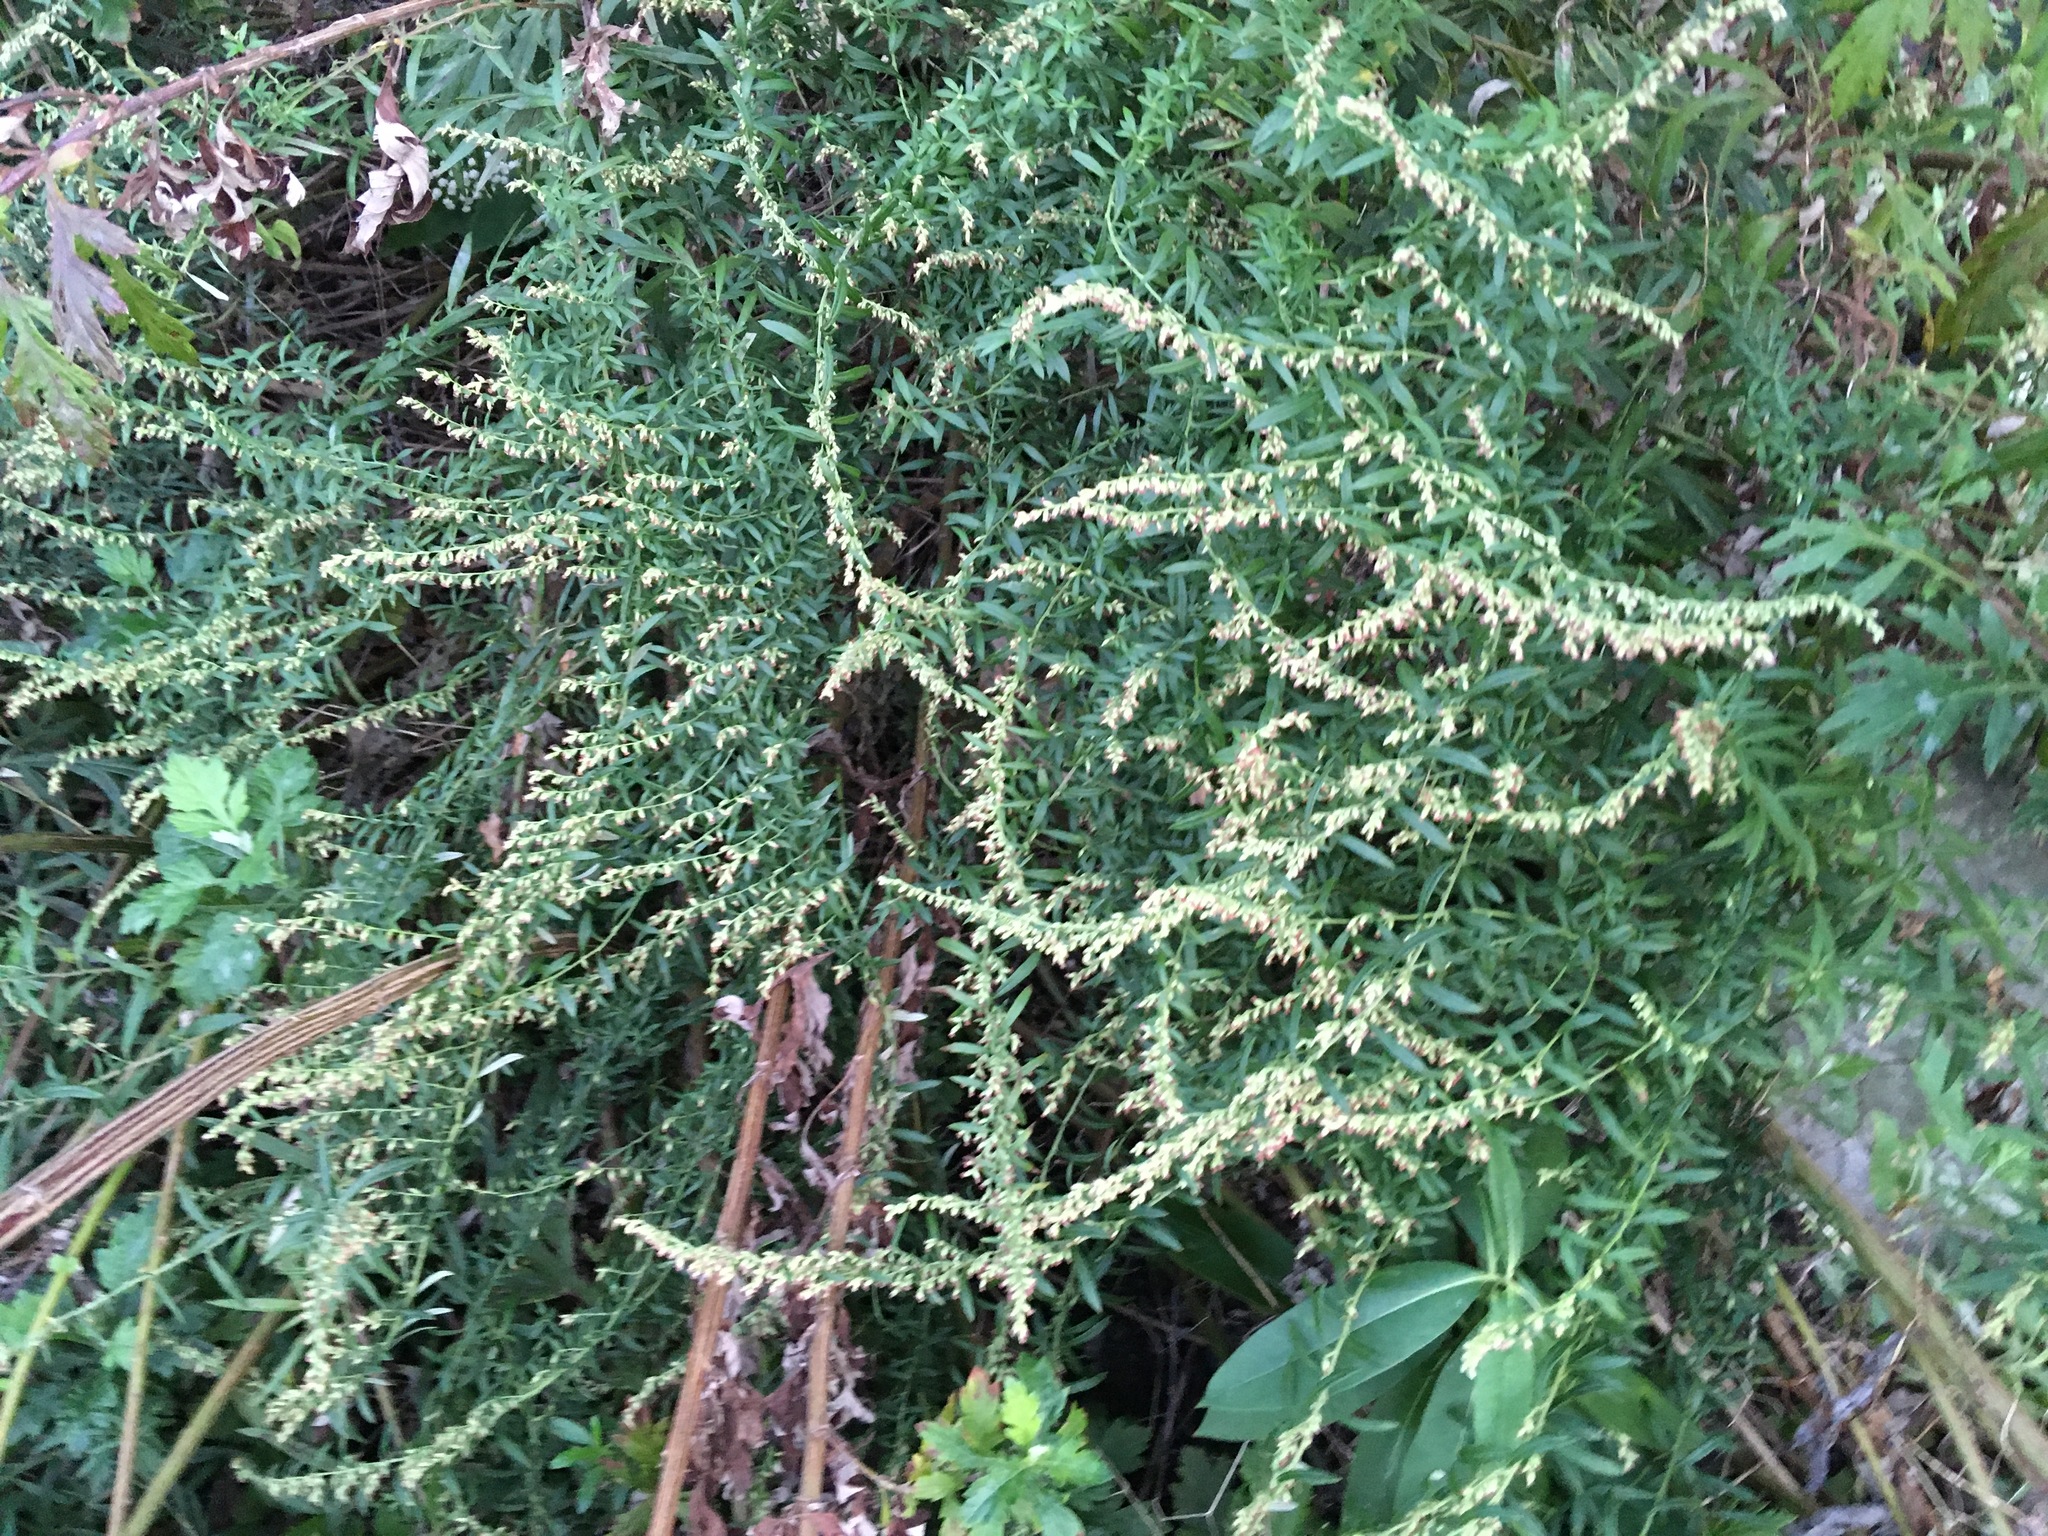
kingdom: Plantae
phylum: Tracheophyta
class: Magnoliopsida
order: Asterales
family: Asteraceae
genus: Artemisia
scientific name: Artemisia vulgaris
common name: Mugwort
